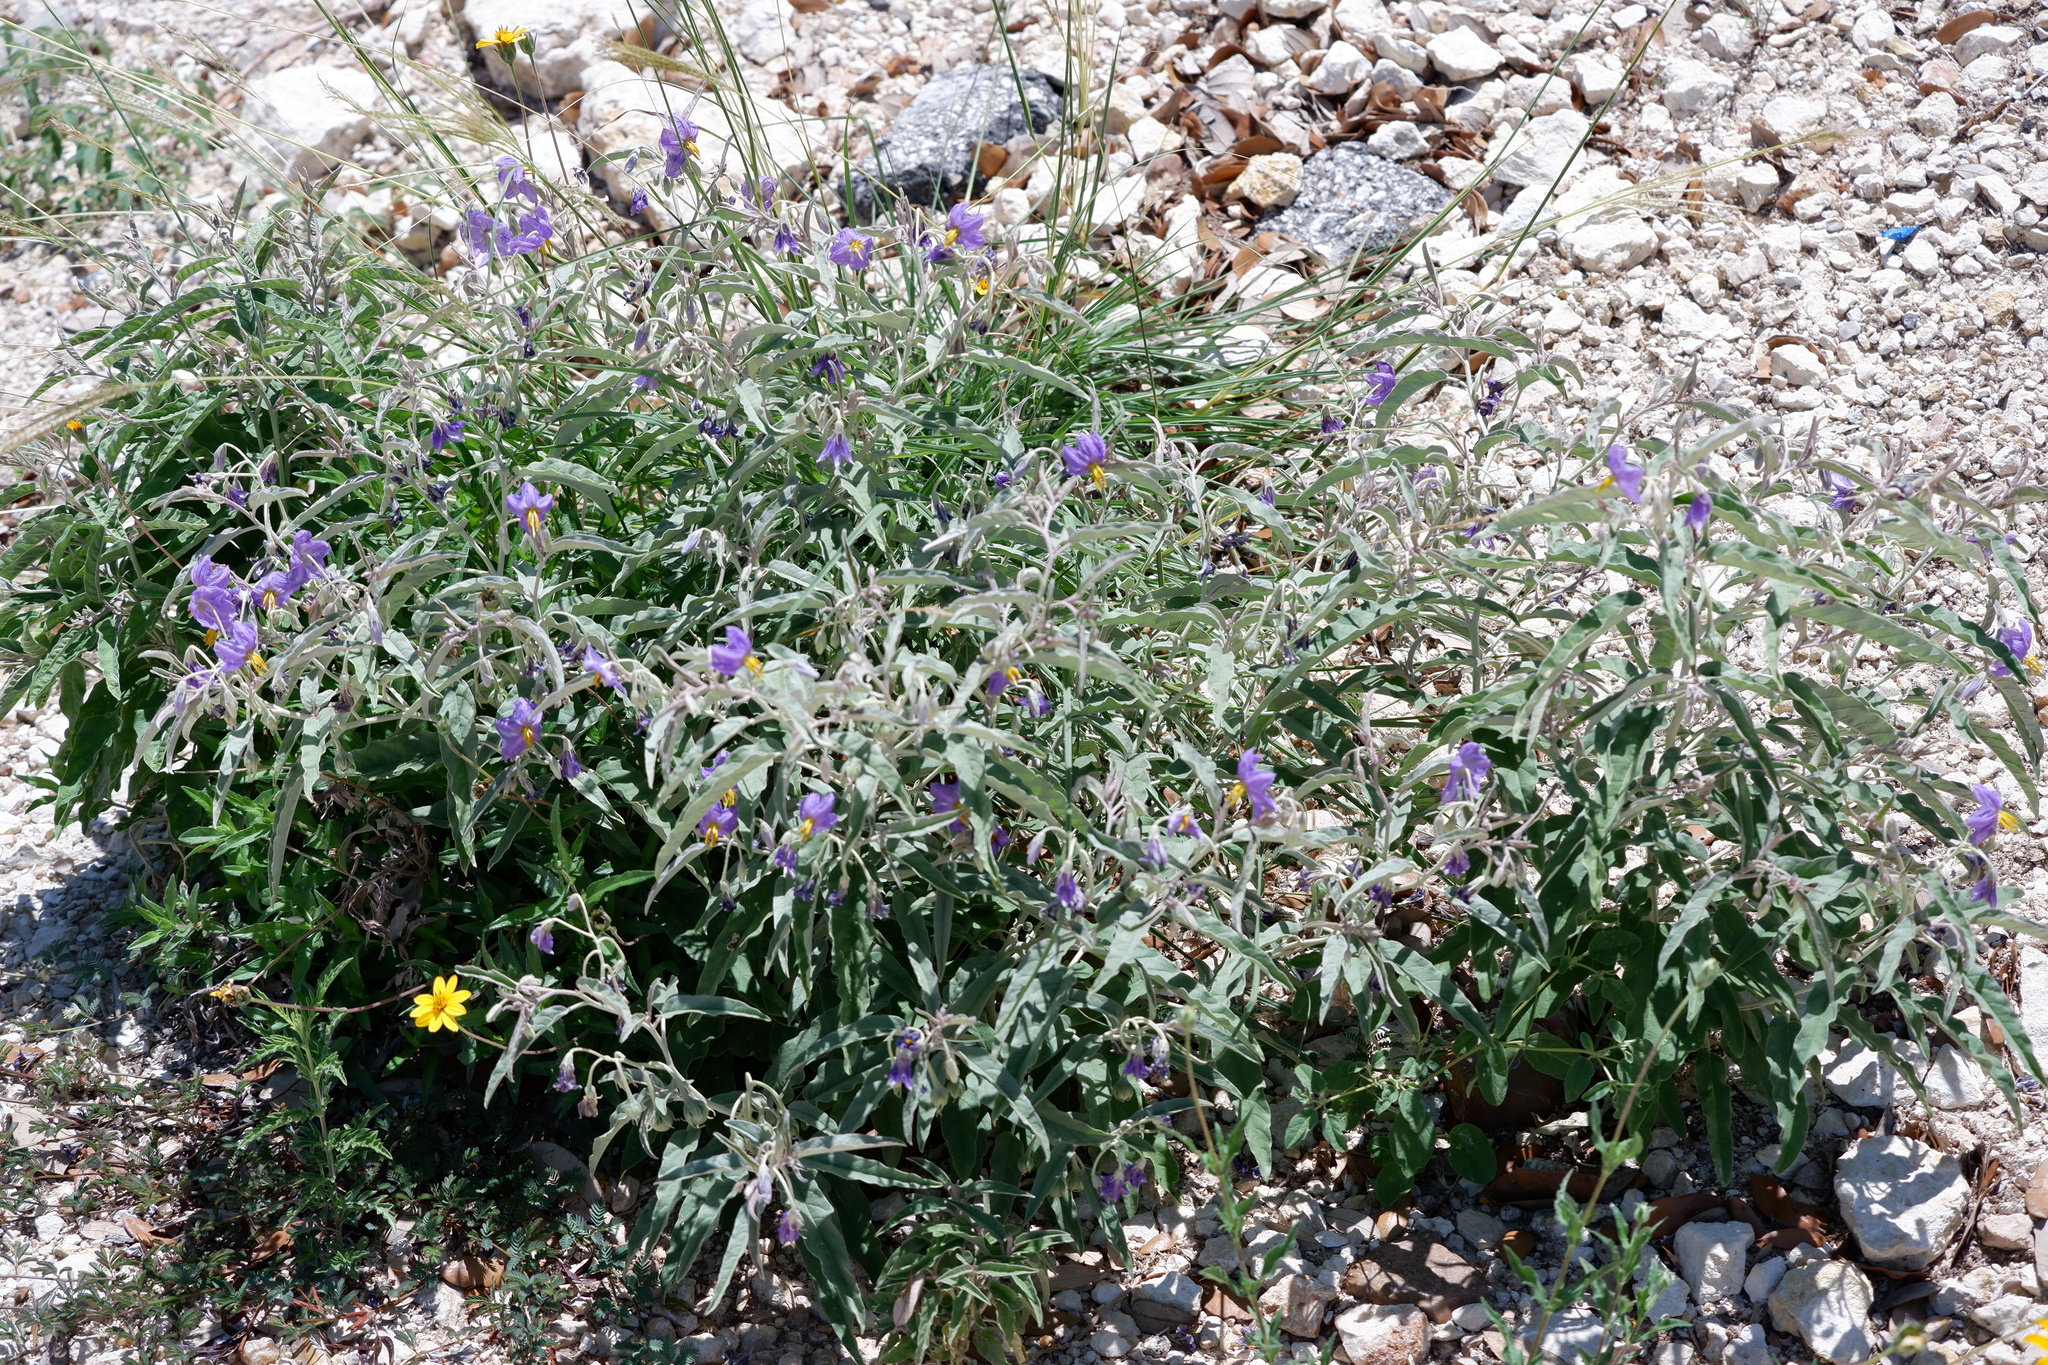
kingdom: Plantae
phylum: Tracheophyta
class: Magnoliopsida
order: Solanales
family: Solanaceae
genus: Solanum
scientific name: Solanum elaeagnifolium
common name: Silverleaf nightshade
